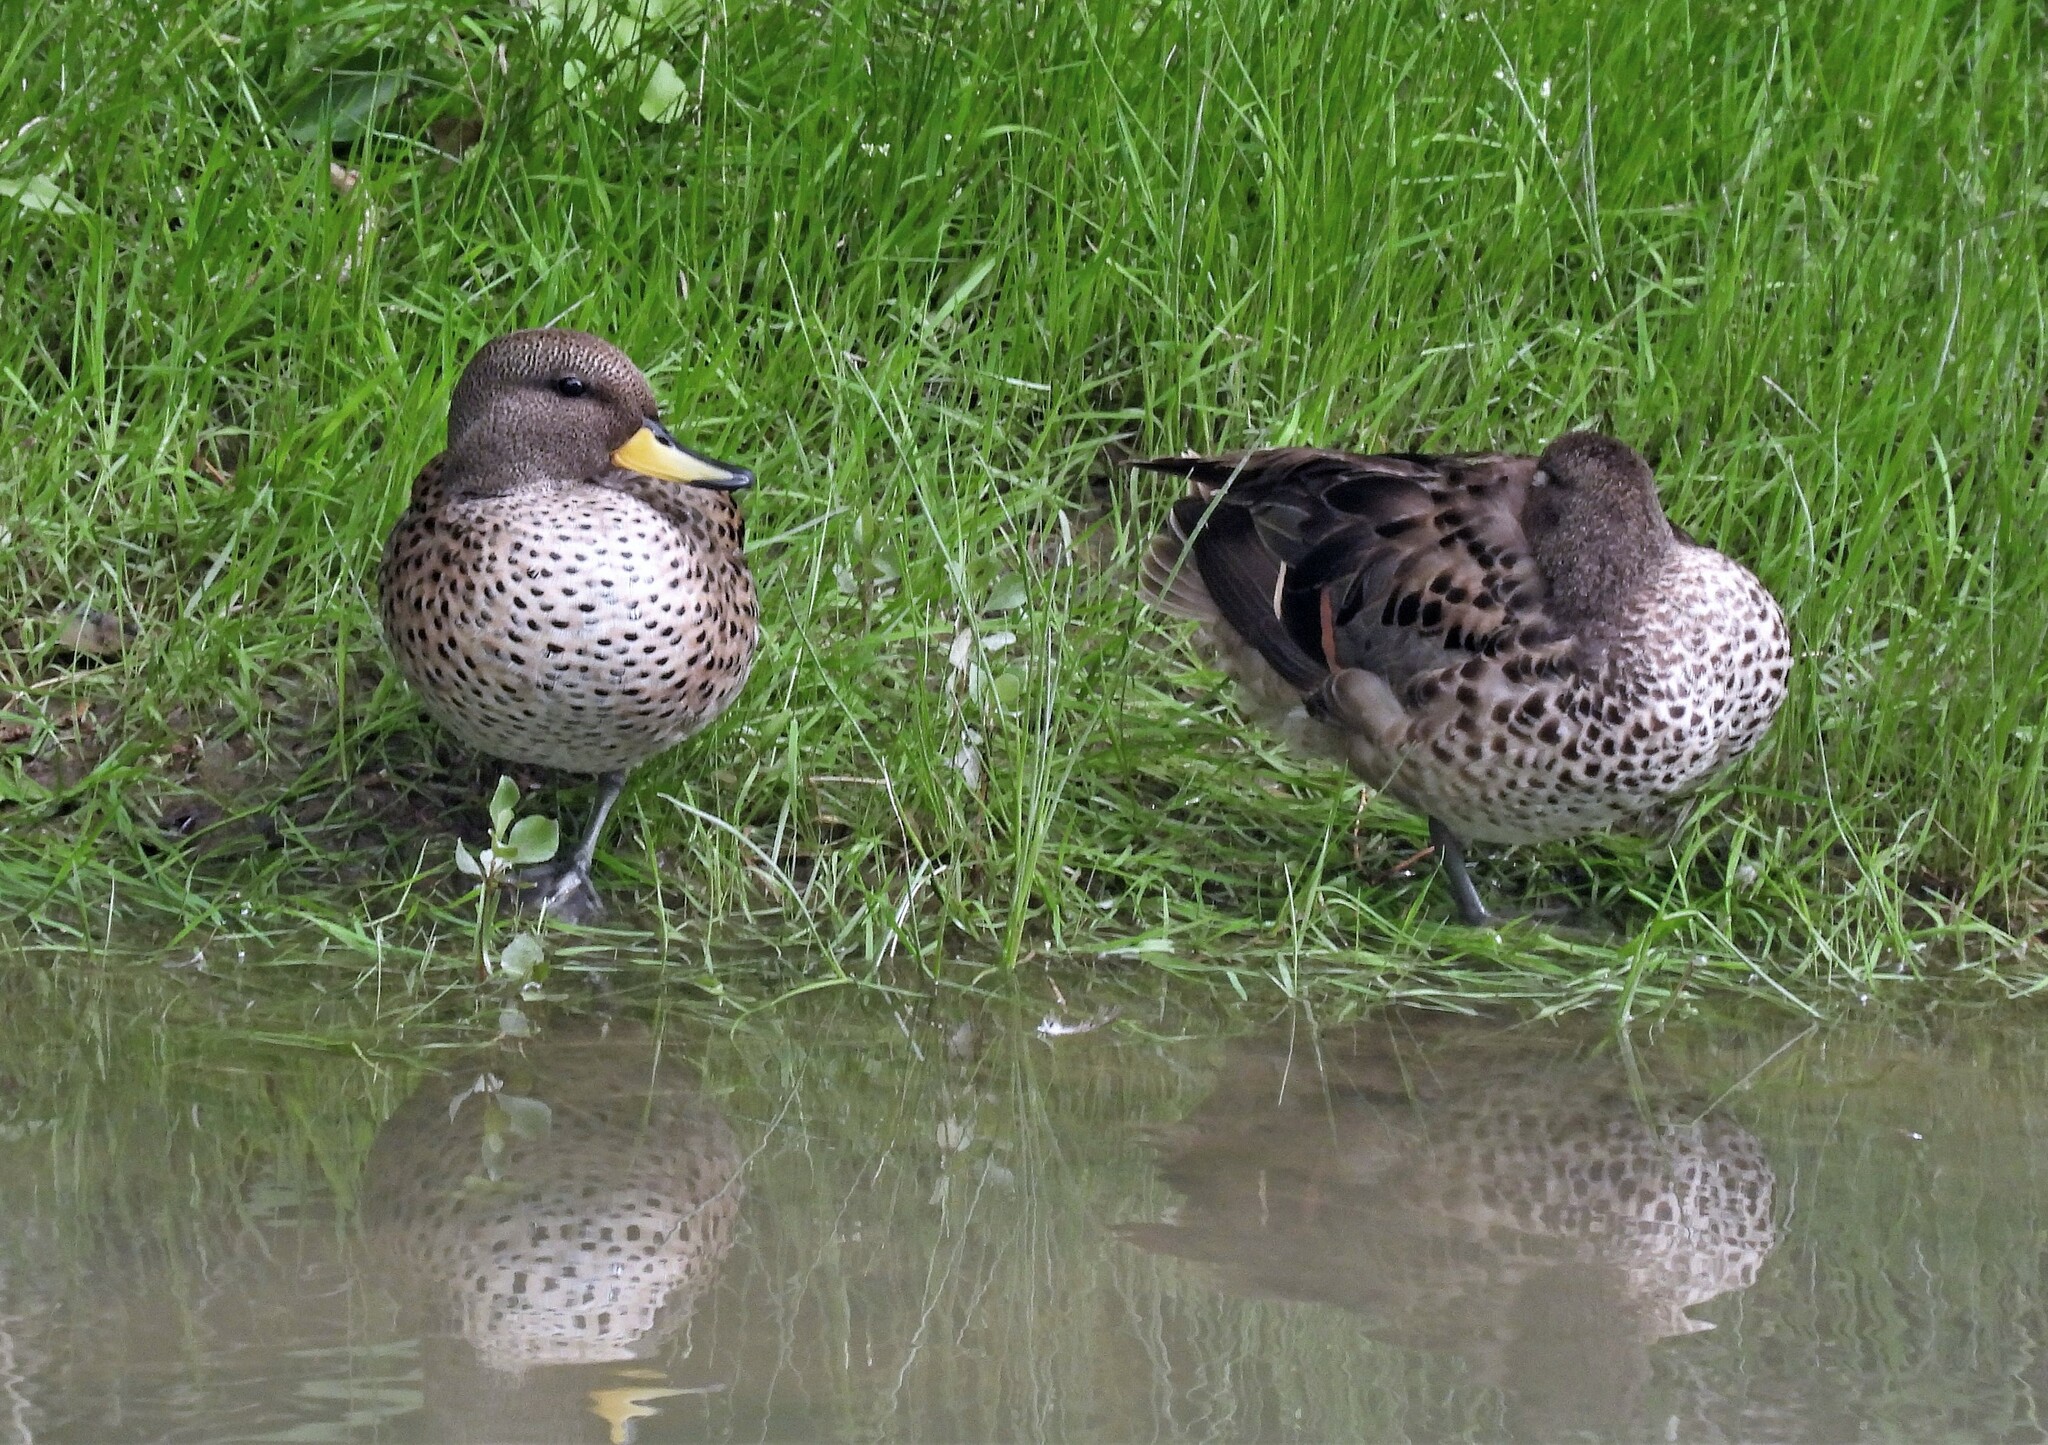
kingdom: Animalia
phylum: Chordata
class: Aves
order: Anseriformes
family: Anatidae
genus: Anas
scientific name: Anas flavirostris
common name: Yellow-billed teal
